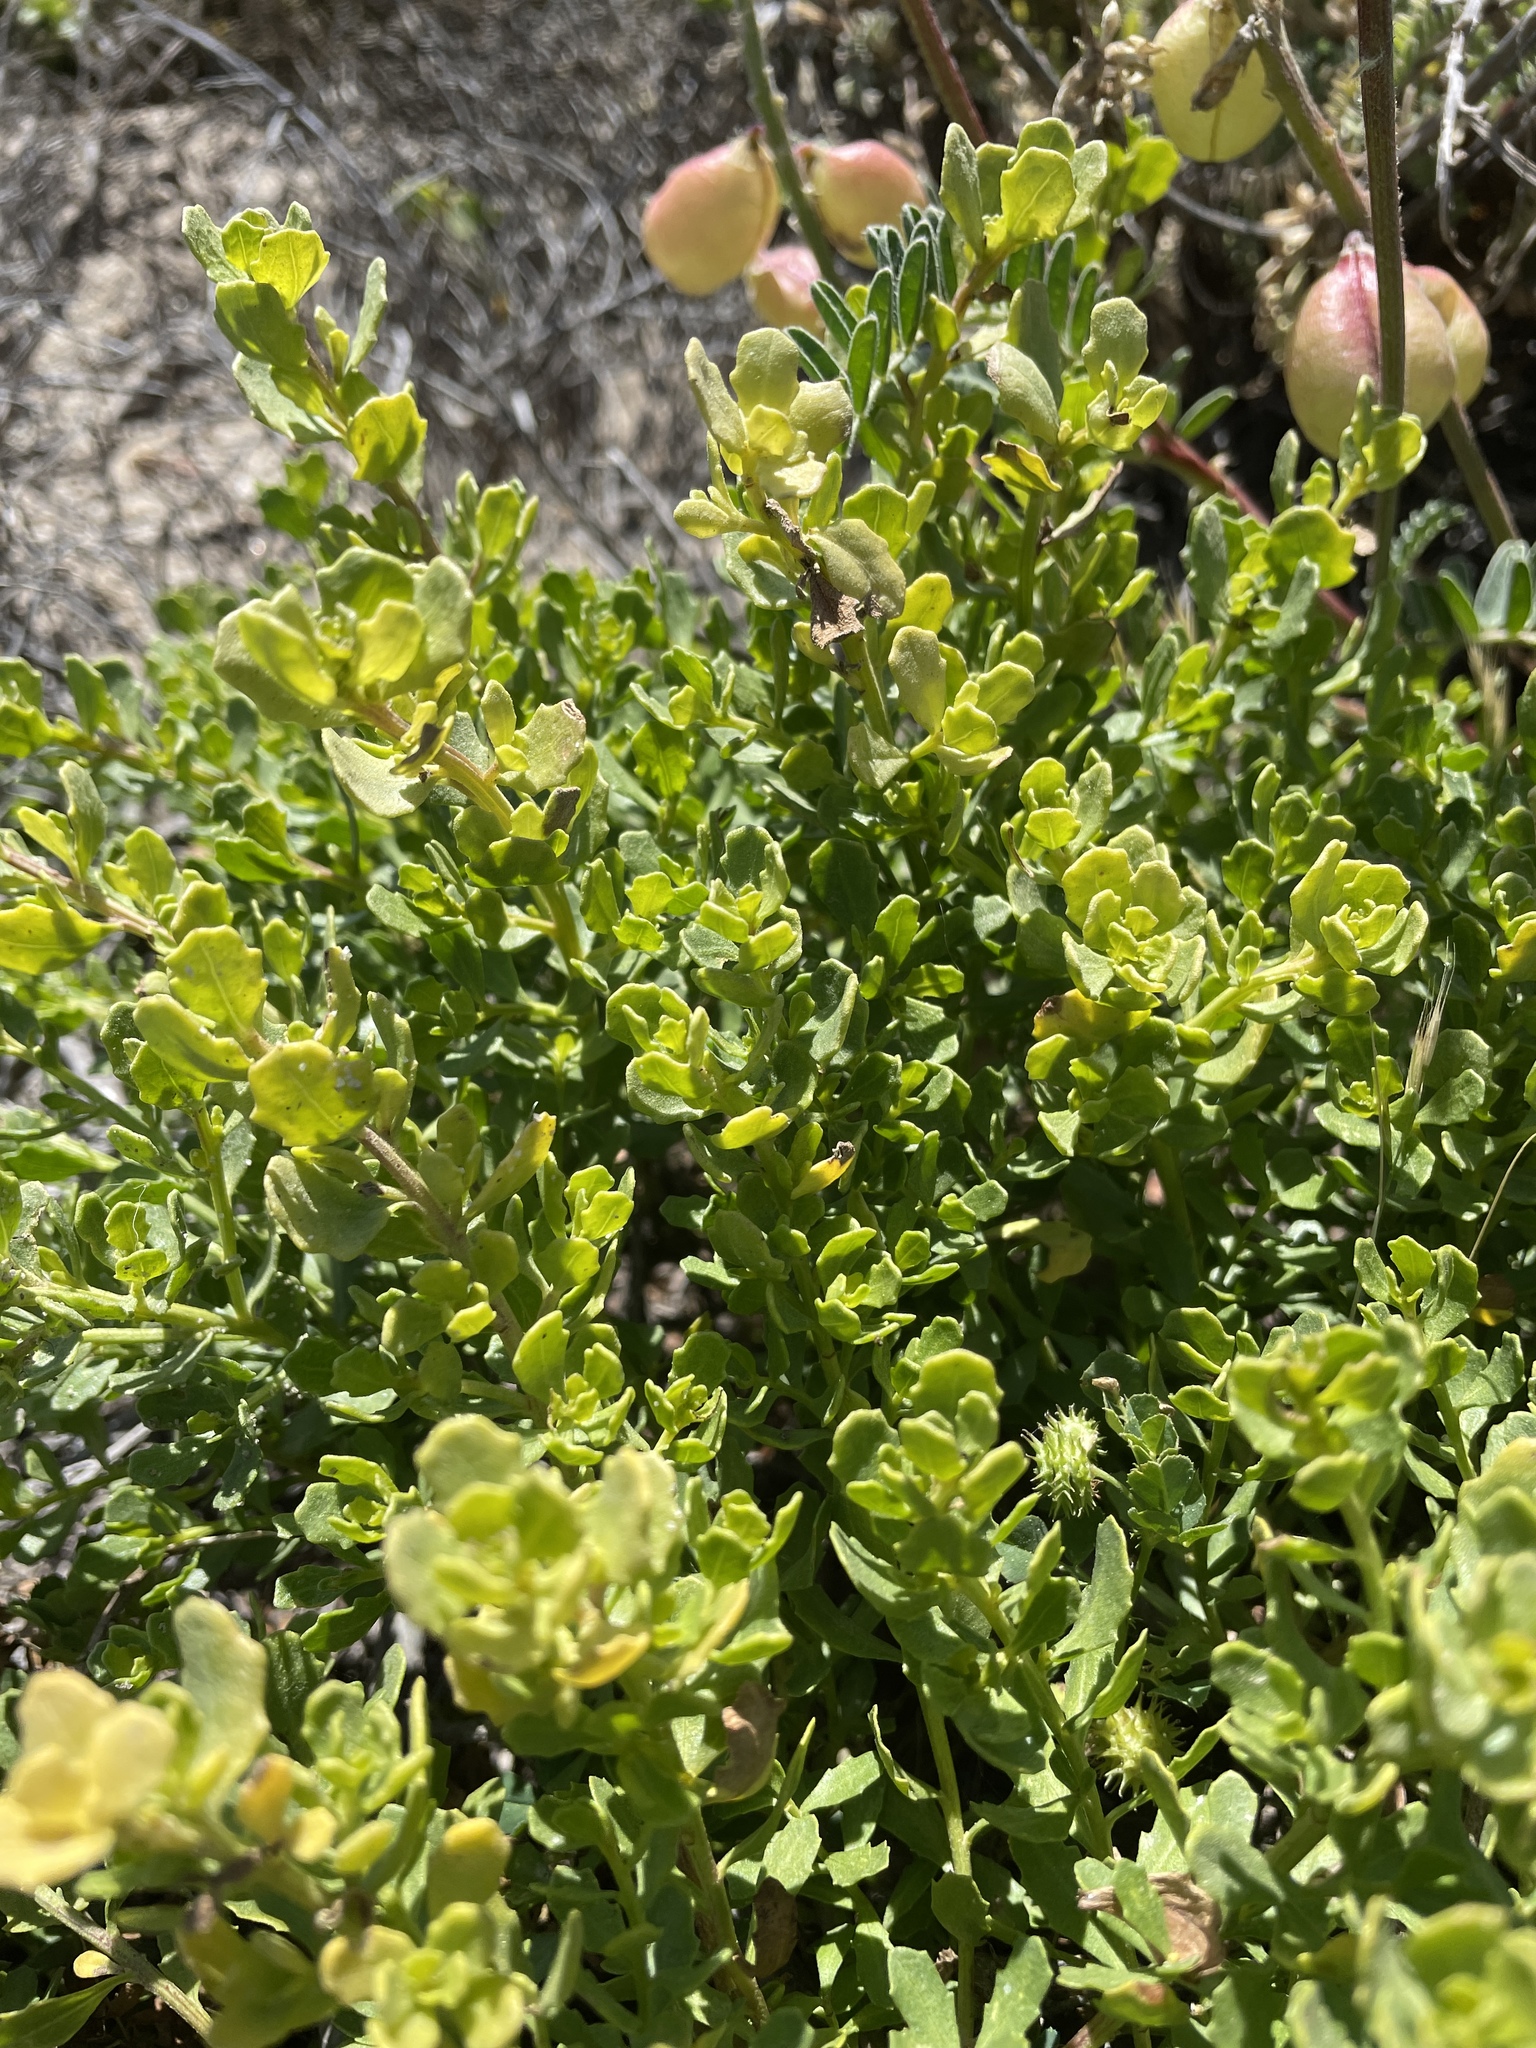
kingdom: Plantae
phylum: Tracheophyta
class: Magnoliopsida
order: Asterales
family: Asteraceae
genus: Baccharis
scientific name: Baccharis pilularis
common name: Coyotebrush
